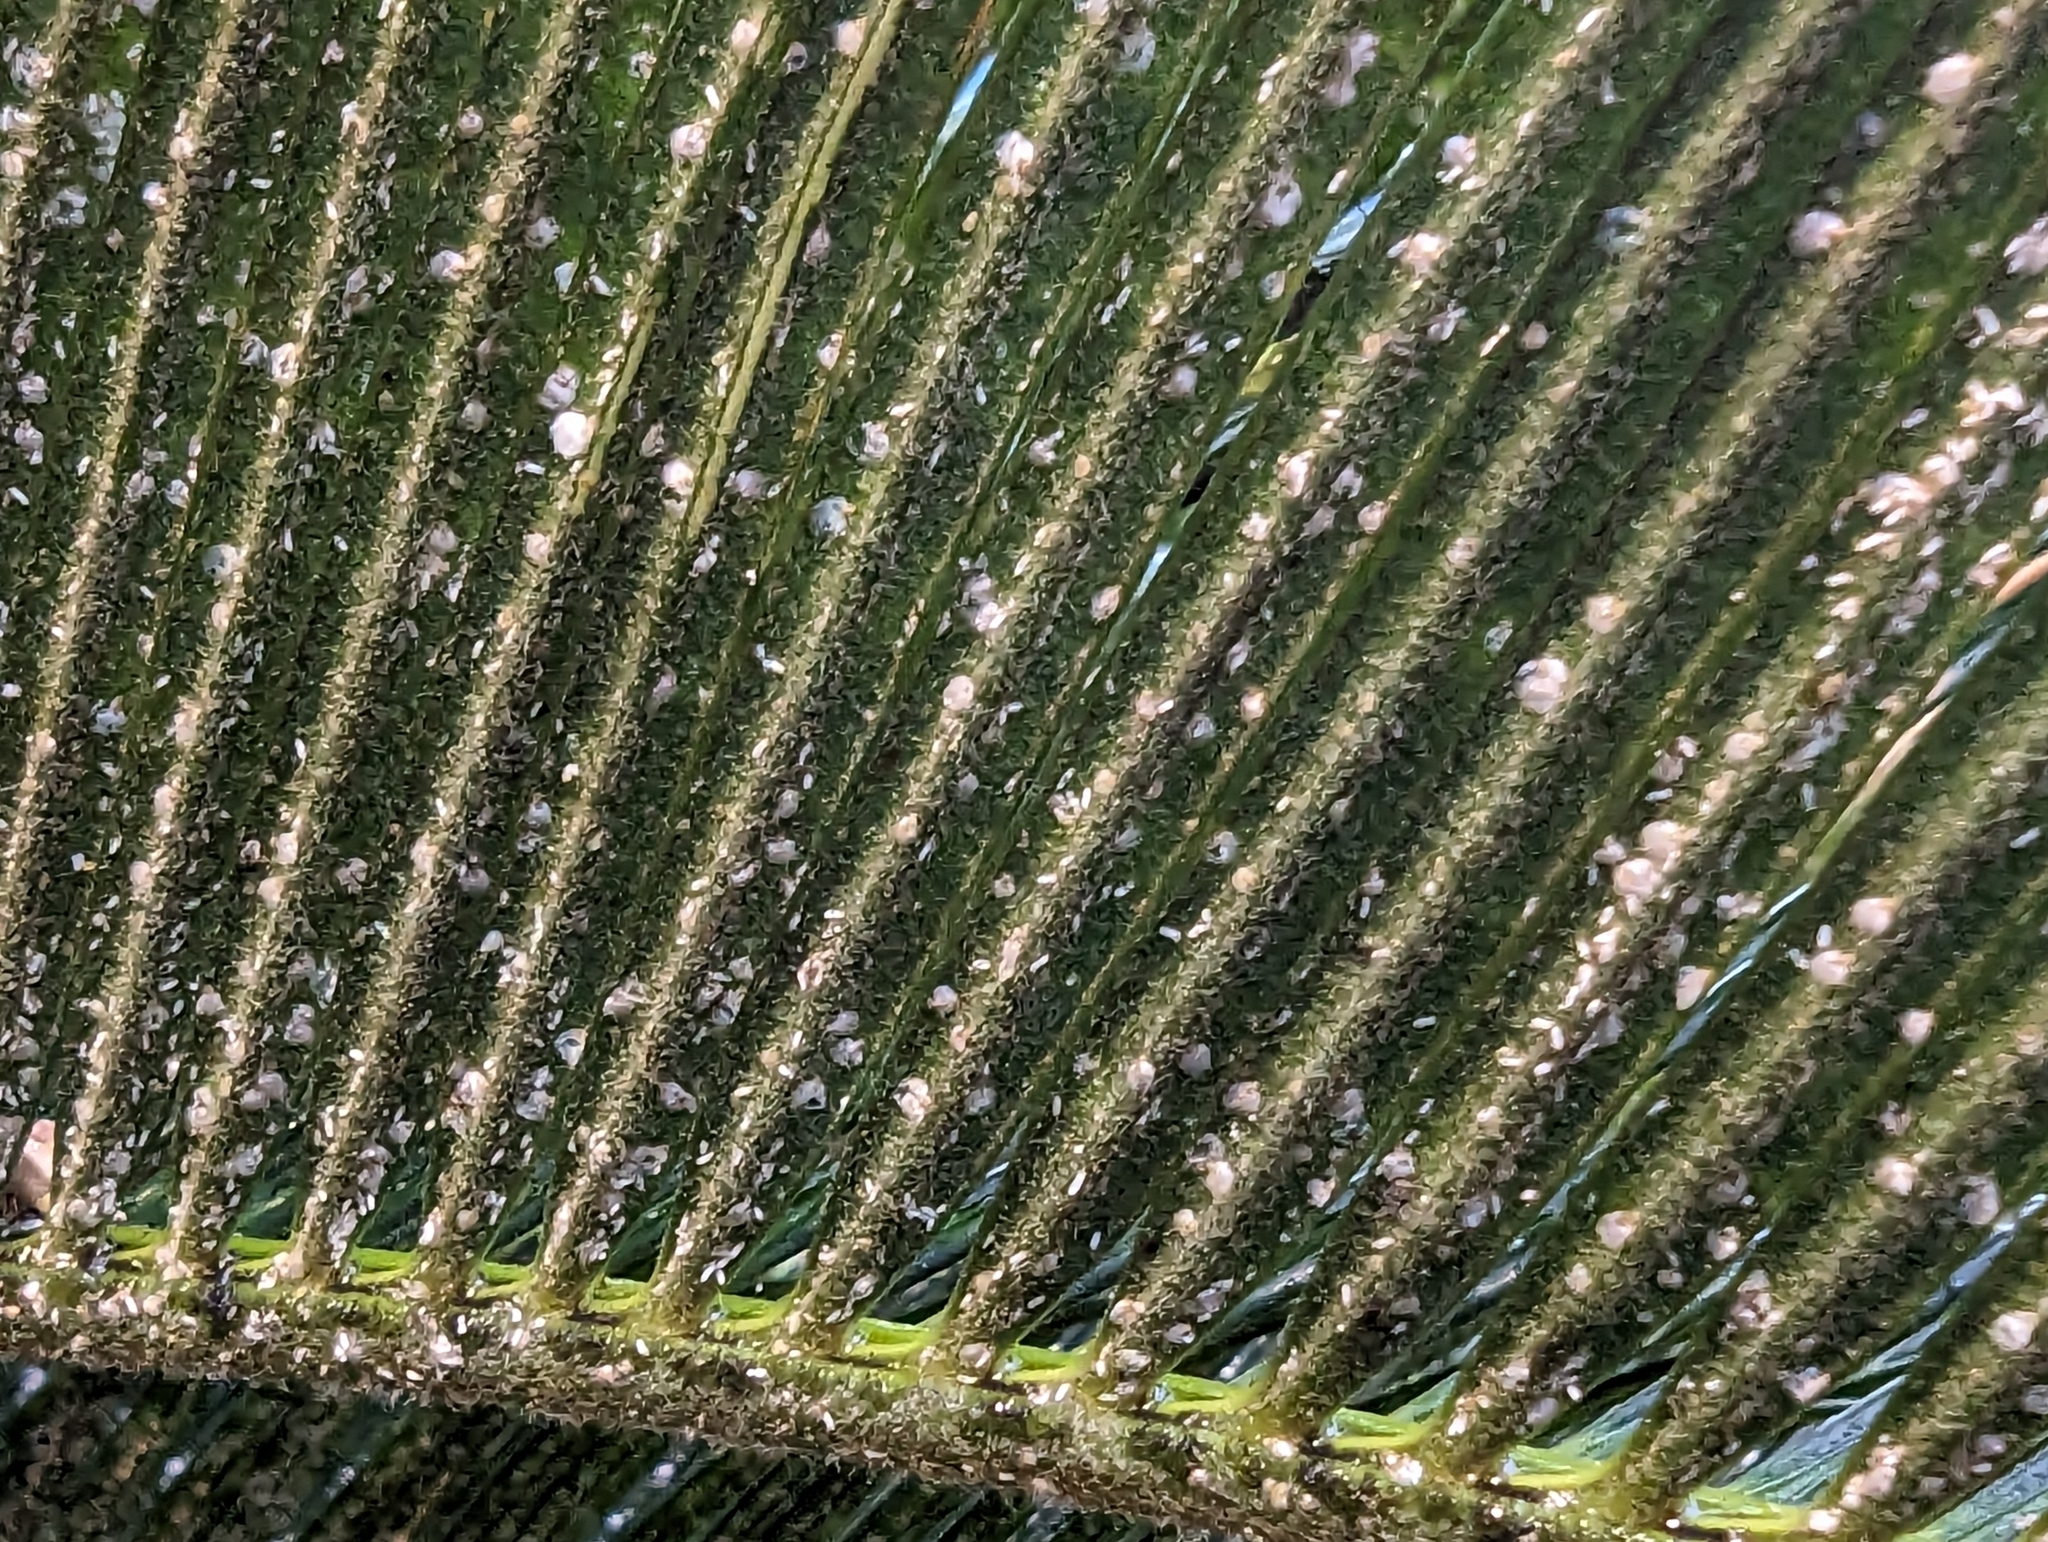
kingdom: Animalia
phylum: Arthropoda
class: Insecta
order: Hemiptera
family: Diaspididae
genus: Aulacaspis
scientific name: Aulacaspis yasumatsui
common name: Cycad aulacaspis scale
